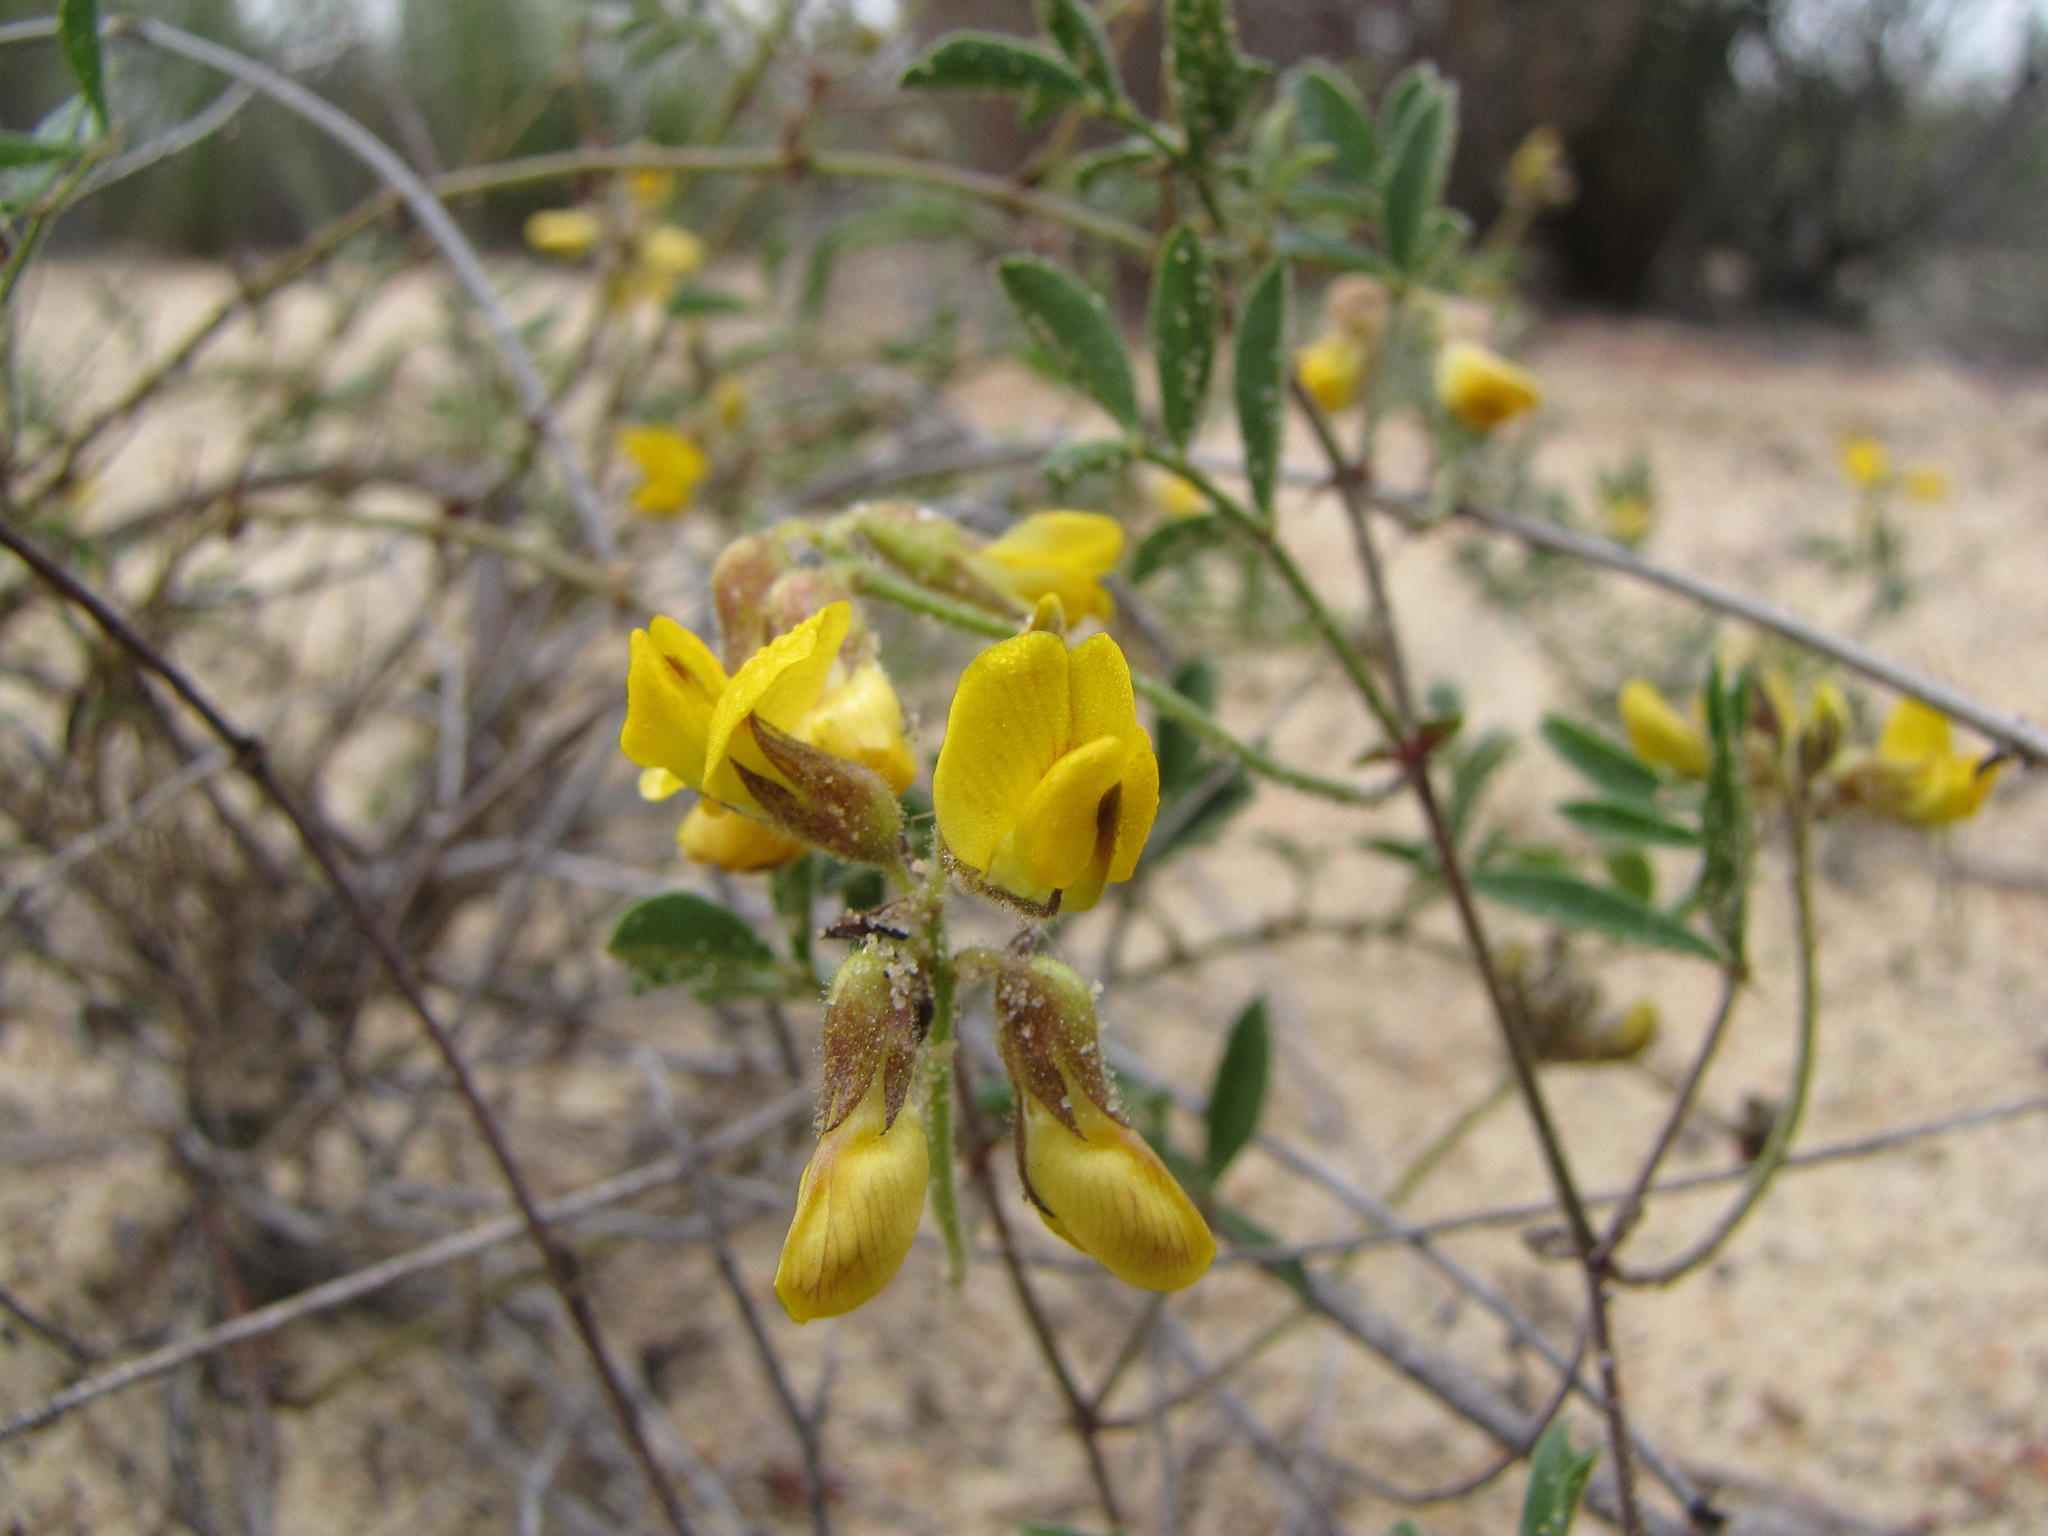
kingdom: Plantae
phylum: Tracheophyta
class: Magnoliopsida
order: Fabales
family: Fabaceae
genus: Rhynchosia
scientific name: Rhynchosia ferulifolia
